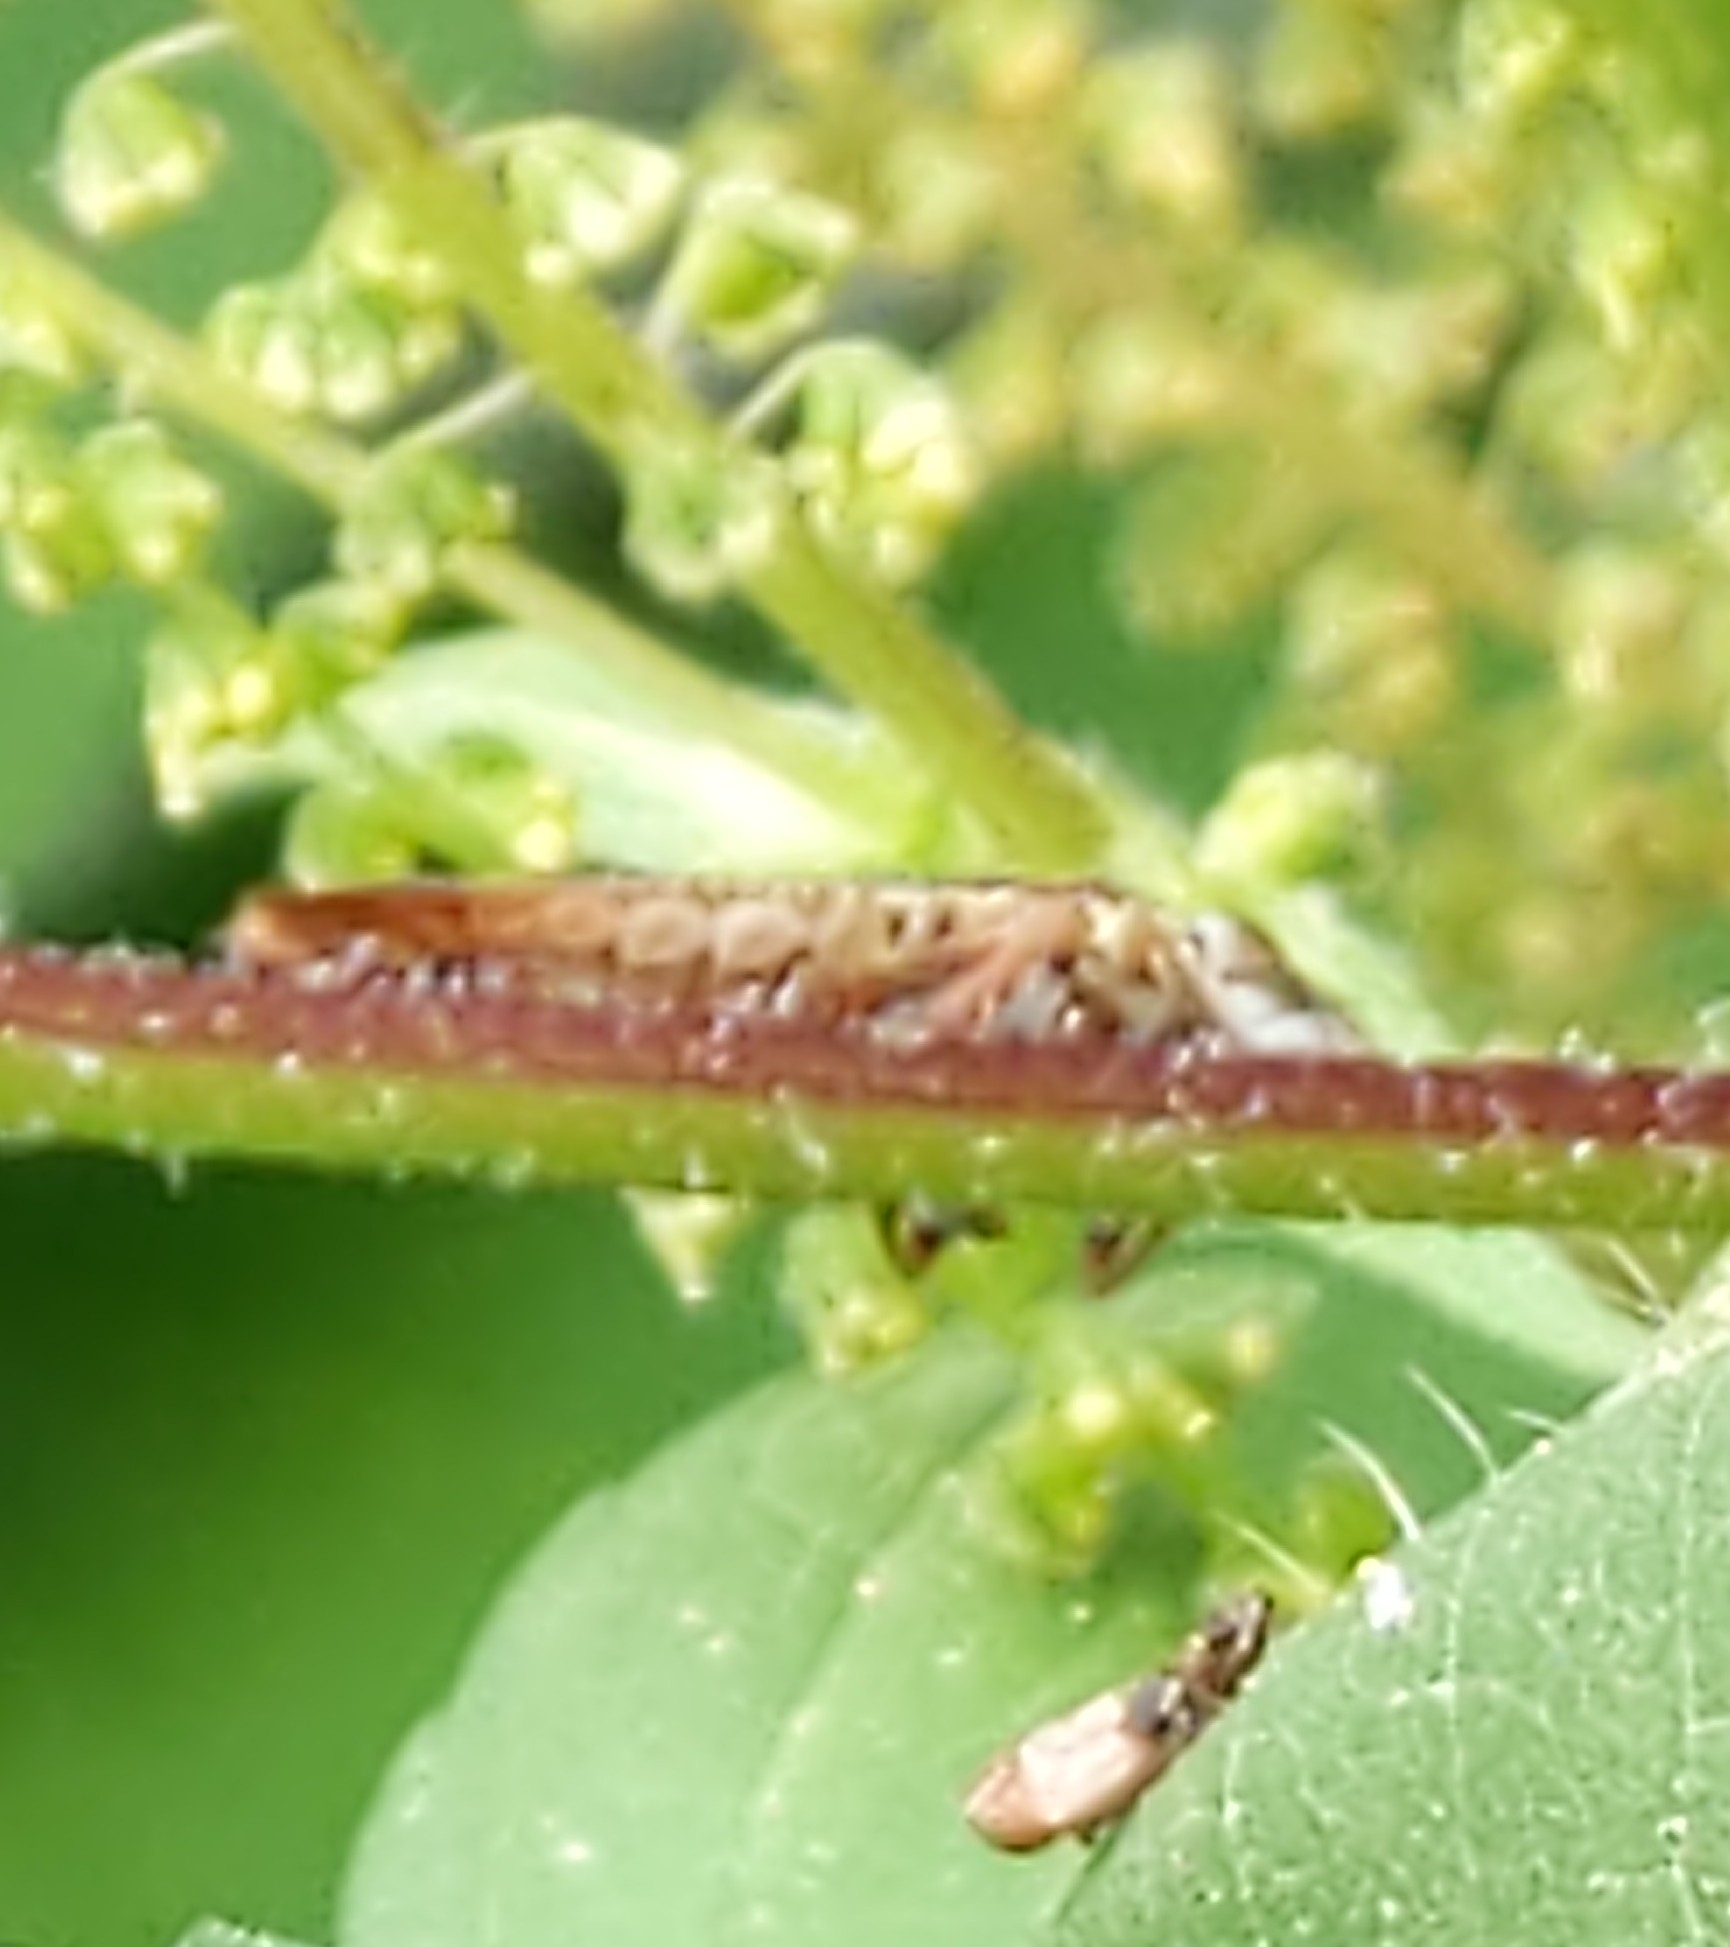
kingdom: Animalia
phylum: Arthropoda
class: Insecta
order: Hemiptera
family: Cicadellidae
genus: Paraulacizes
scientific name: Paraulacizes irrorata
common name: Speckled sharpshooter
